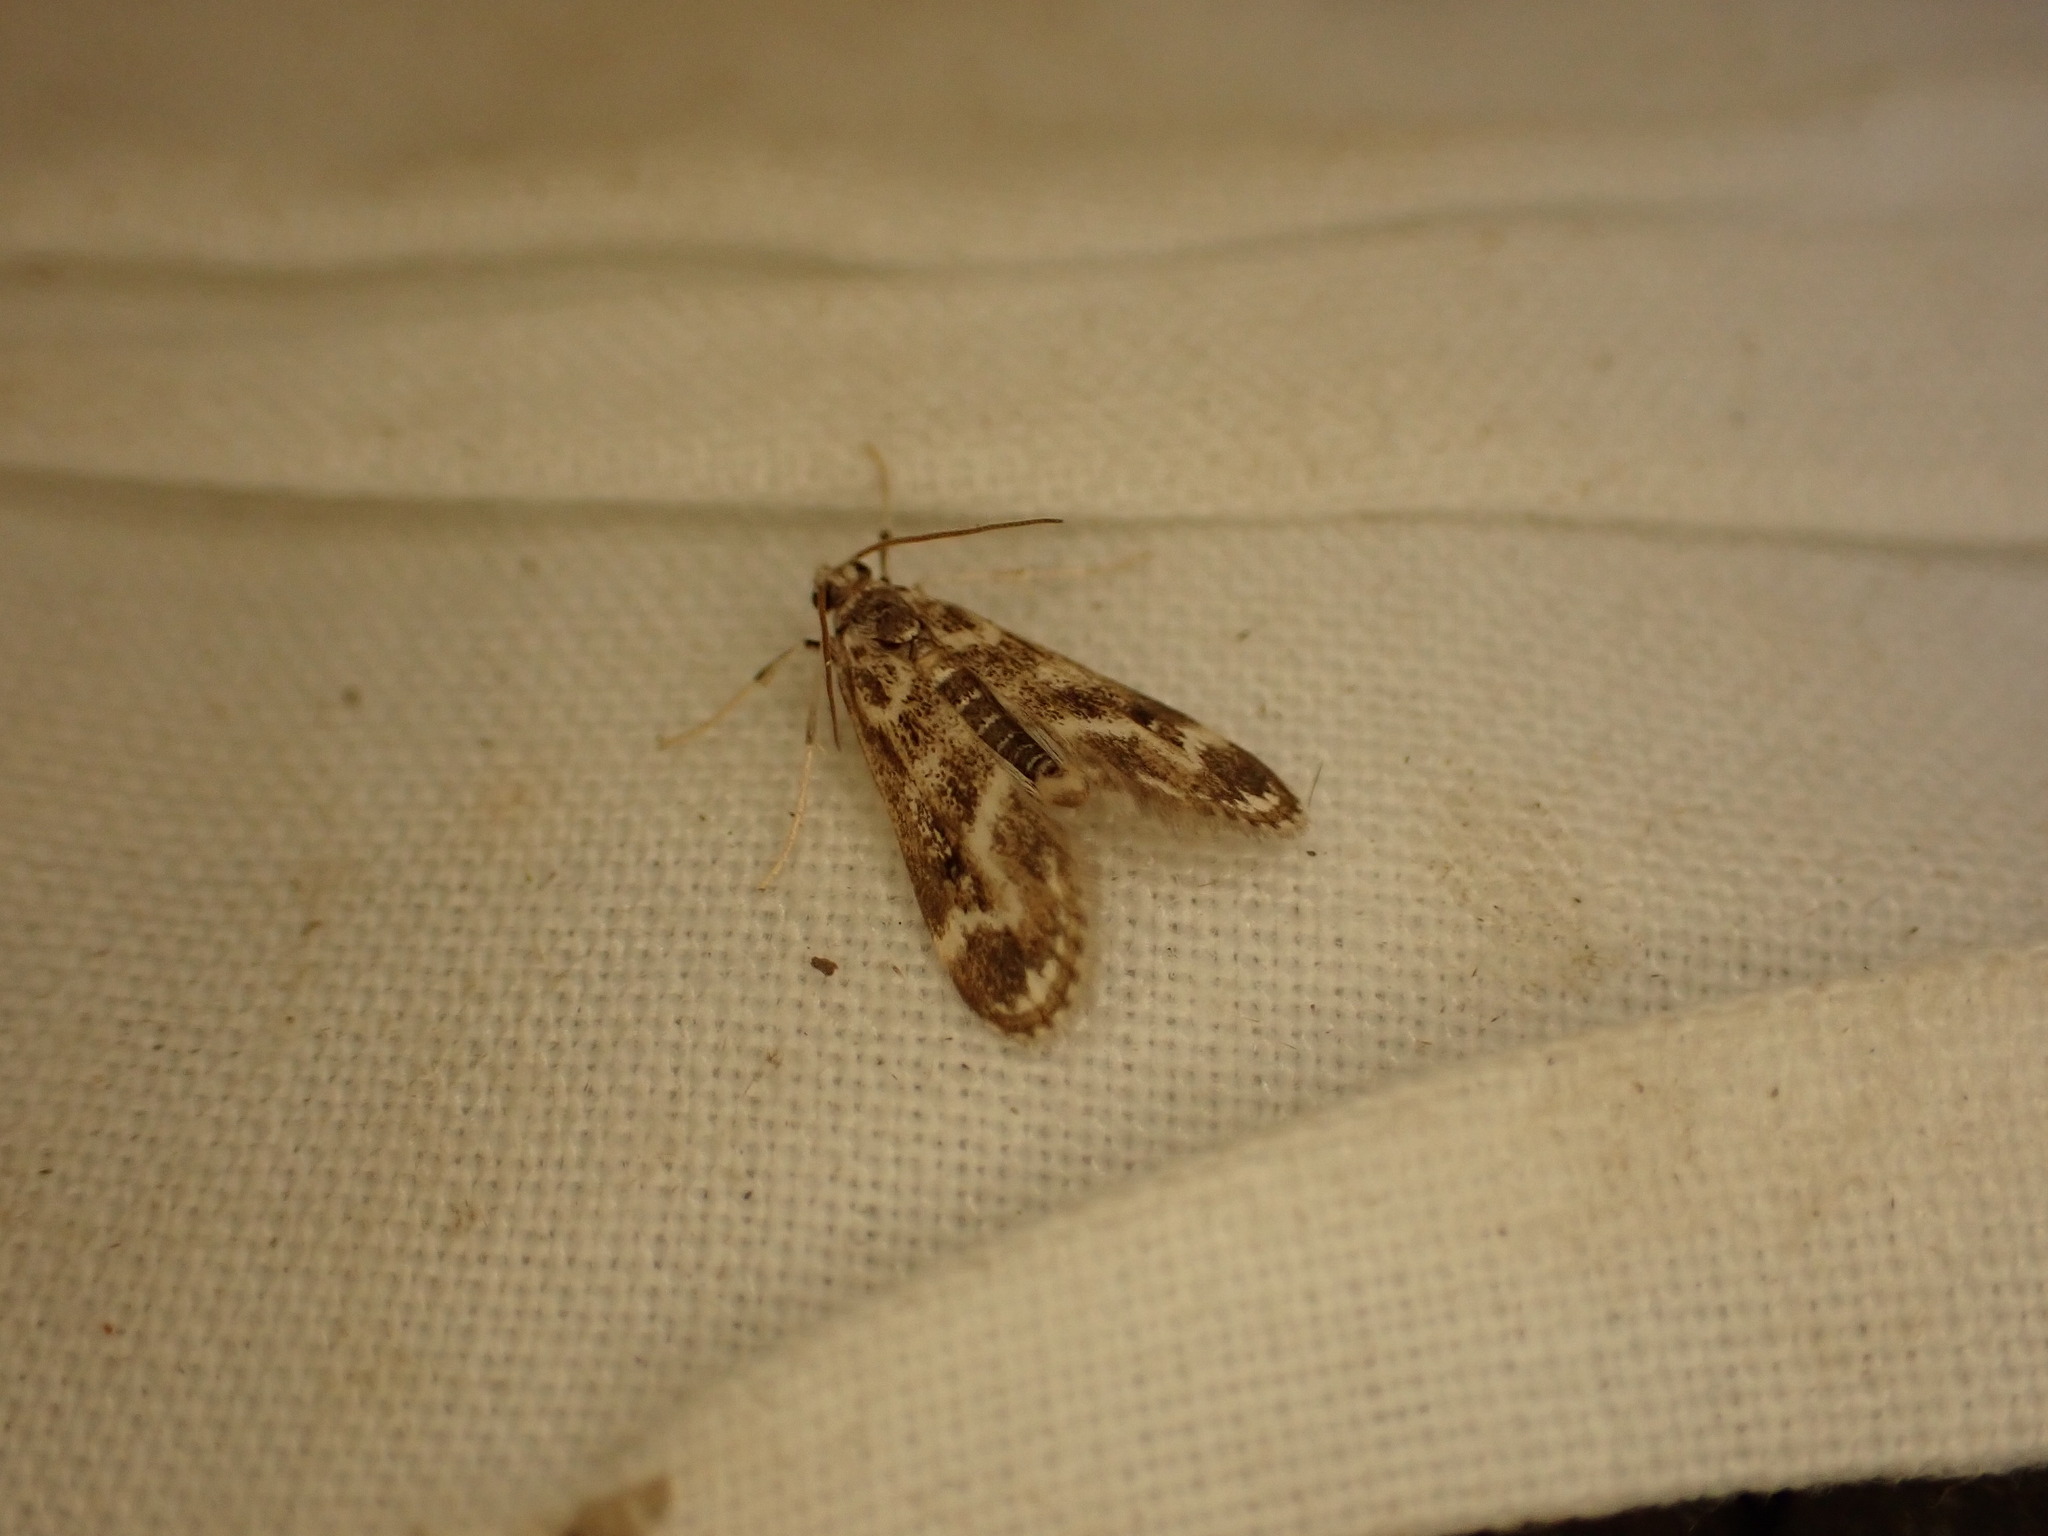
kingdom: Animalia
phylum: Arthropoda
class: Insecta
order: Lepidoptera
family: Crambidae
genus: Hygraula
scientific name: Hygraula nitens
